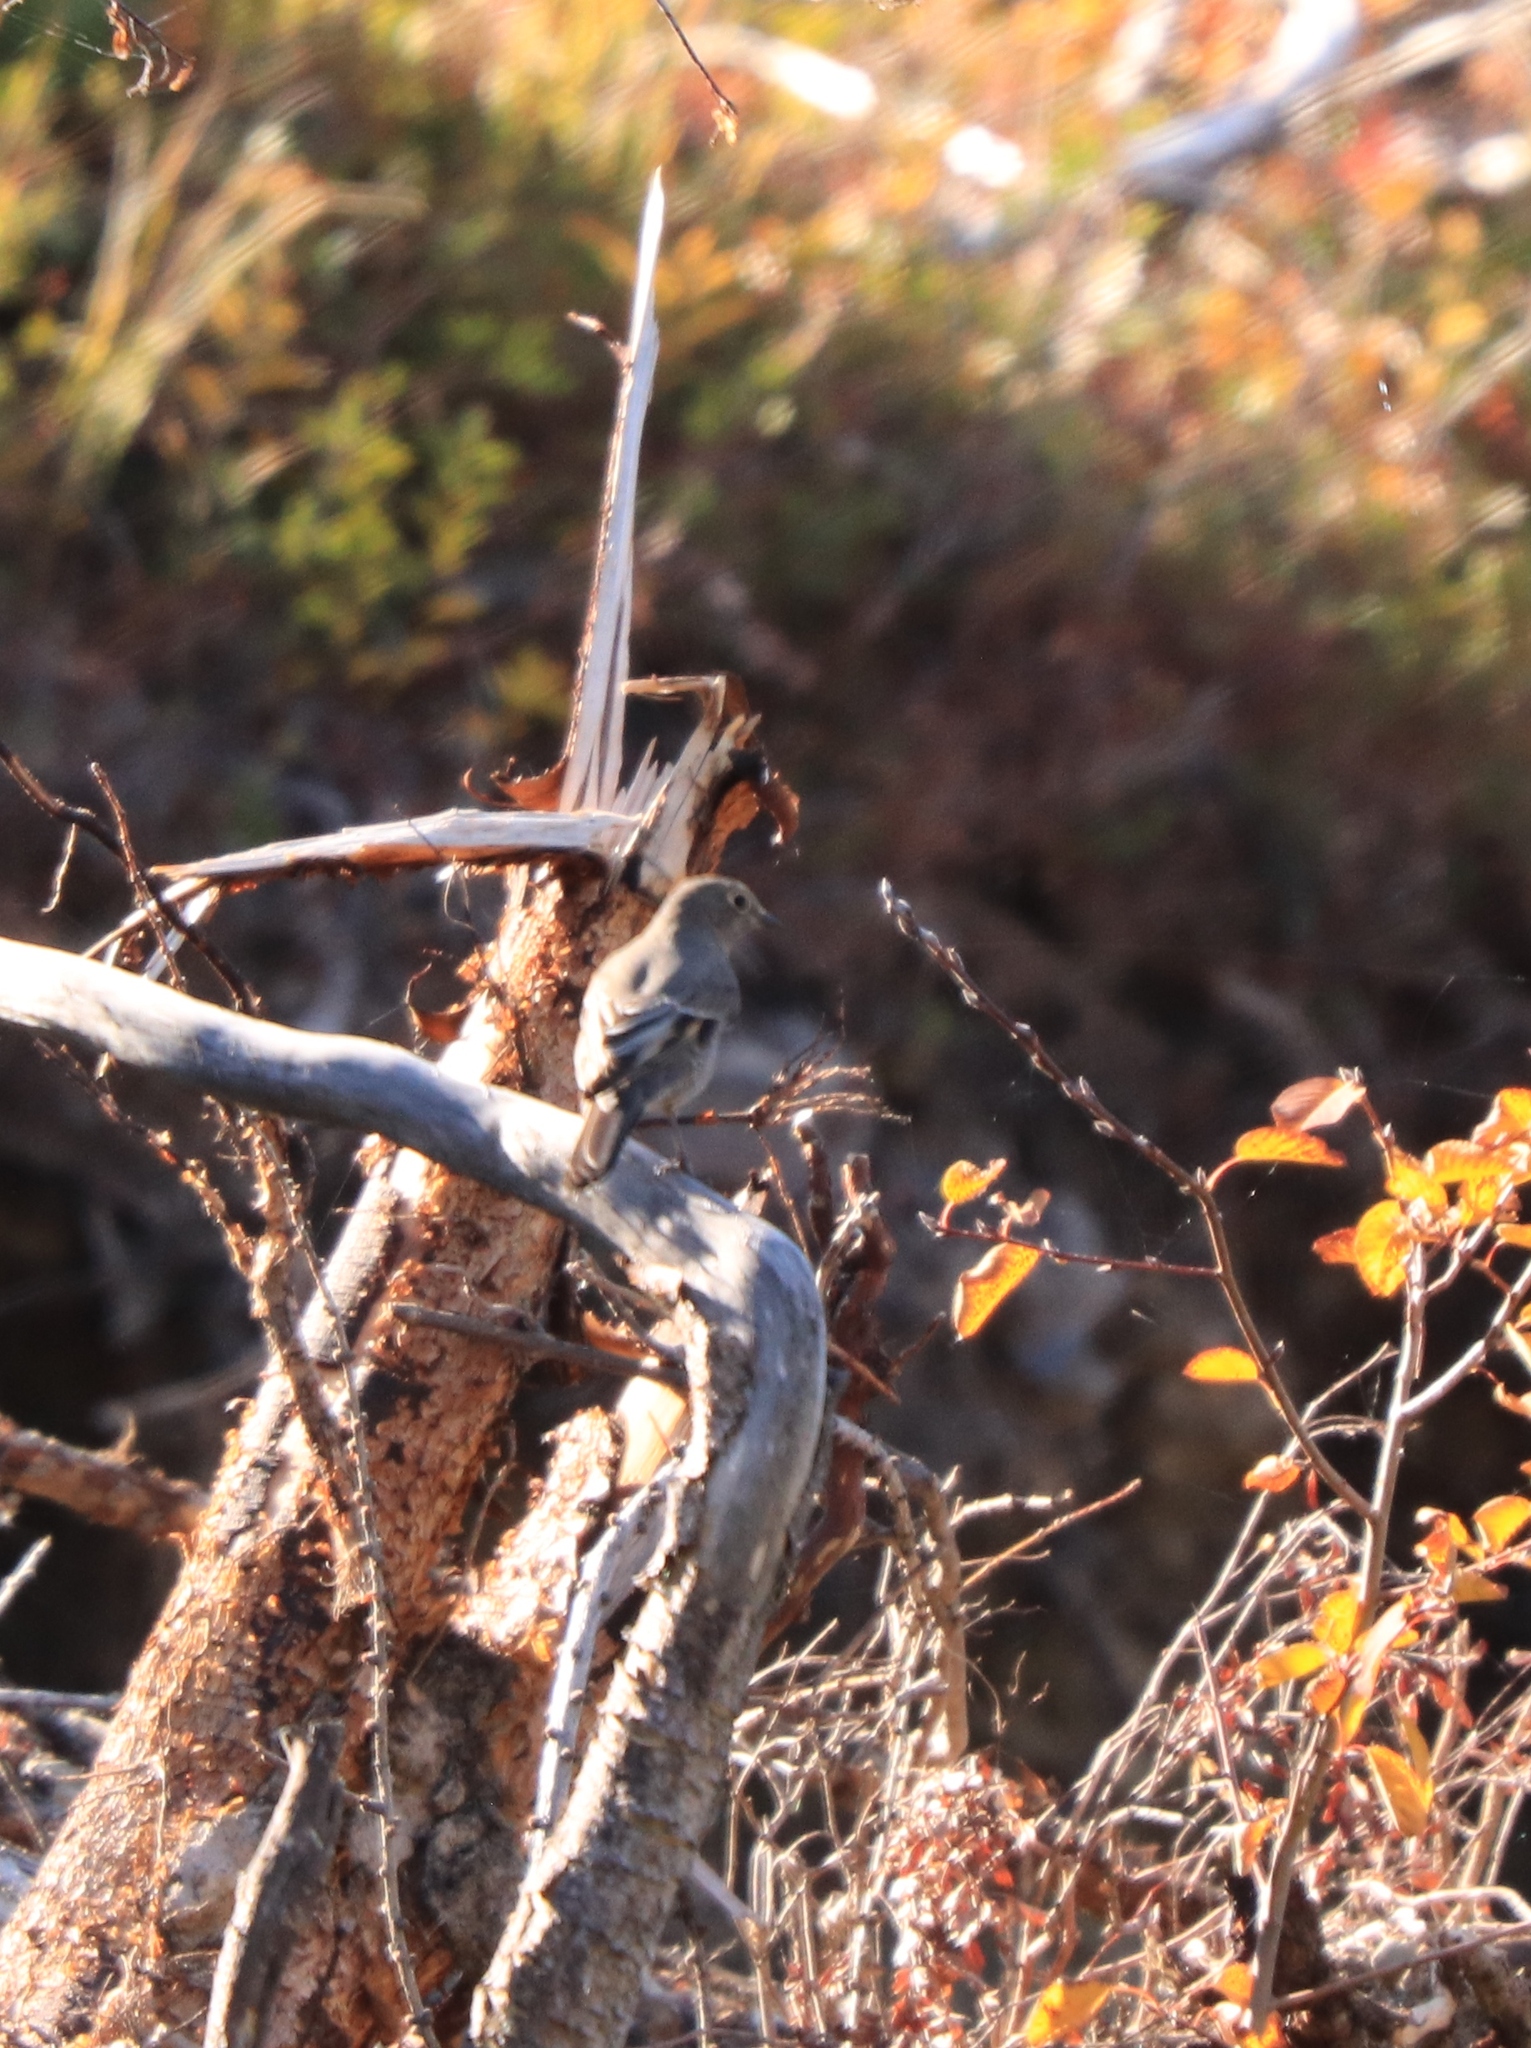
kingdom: Animalia
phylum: Chordata
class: Aves
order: Passeriformes
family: Turdidae
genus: Myadestes
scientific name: Myadestes townsendi
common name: Townsend's solitaire
